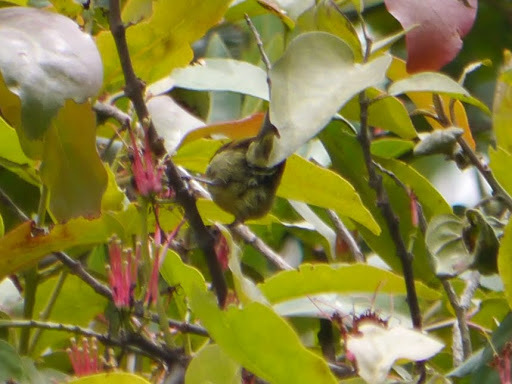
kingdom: Animalia
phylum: Chordata
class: Aves
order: Passeriformes
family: Nectariniidae
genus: Cinnyris
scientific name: Cinnyris reichenowi
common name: Northern double-collared sunbird
